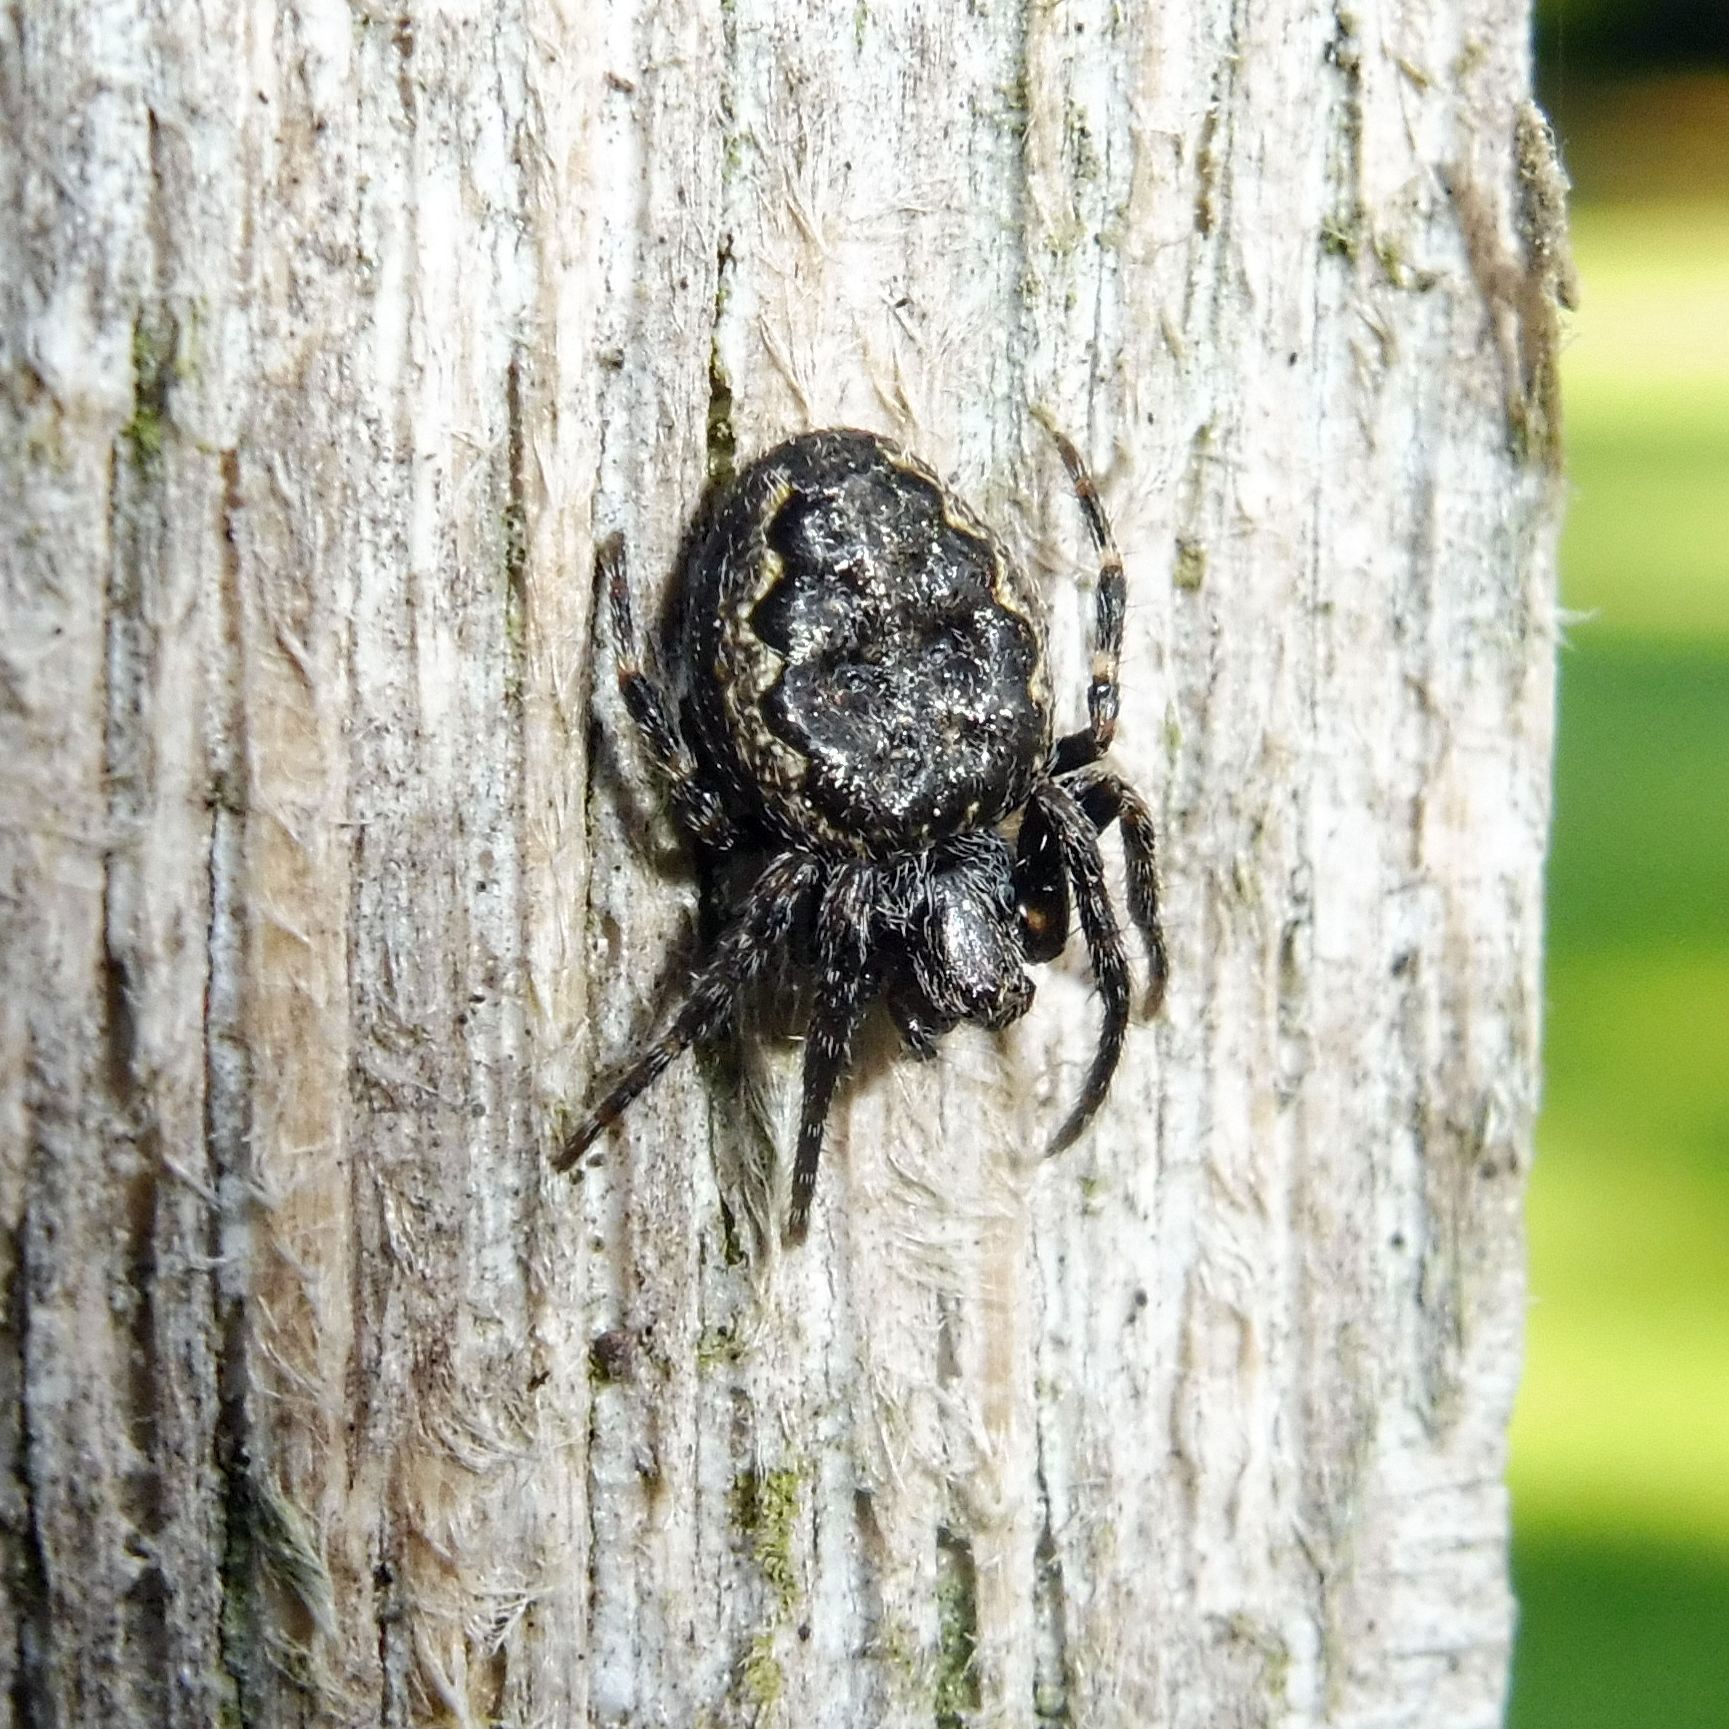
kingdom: Animalia
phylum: Arthropoda
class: Arachnida
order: Araneae
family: Araneidae
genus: Nuctenea
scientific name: Nuctenea umbratica
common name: Toad spider
